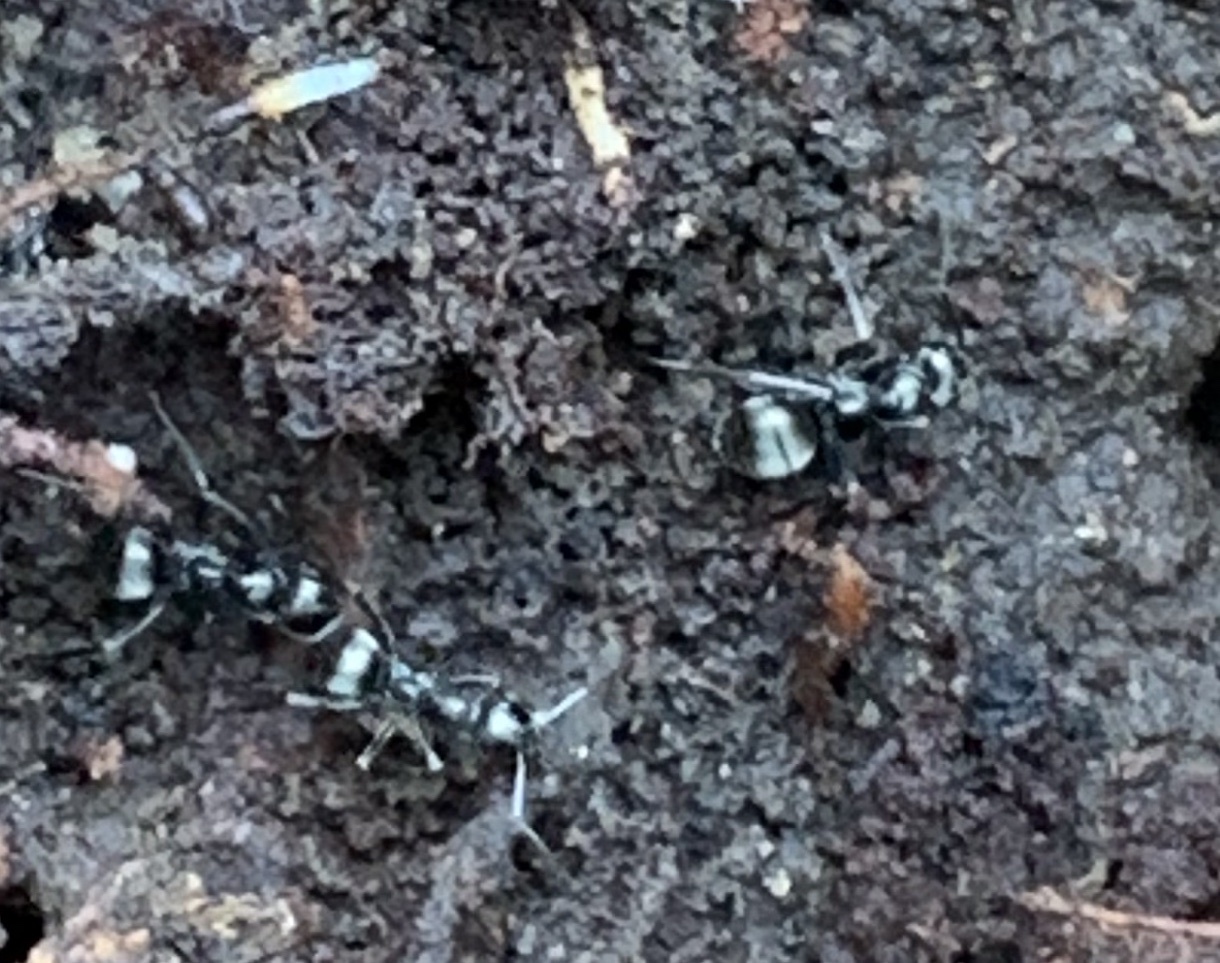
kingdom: Animalia
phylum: Arthropoda
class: Insecta
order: Hymenoptera
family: Formicidae
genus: Formica
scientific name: Formica subsericea
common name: Silky field ant
